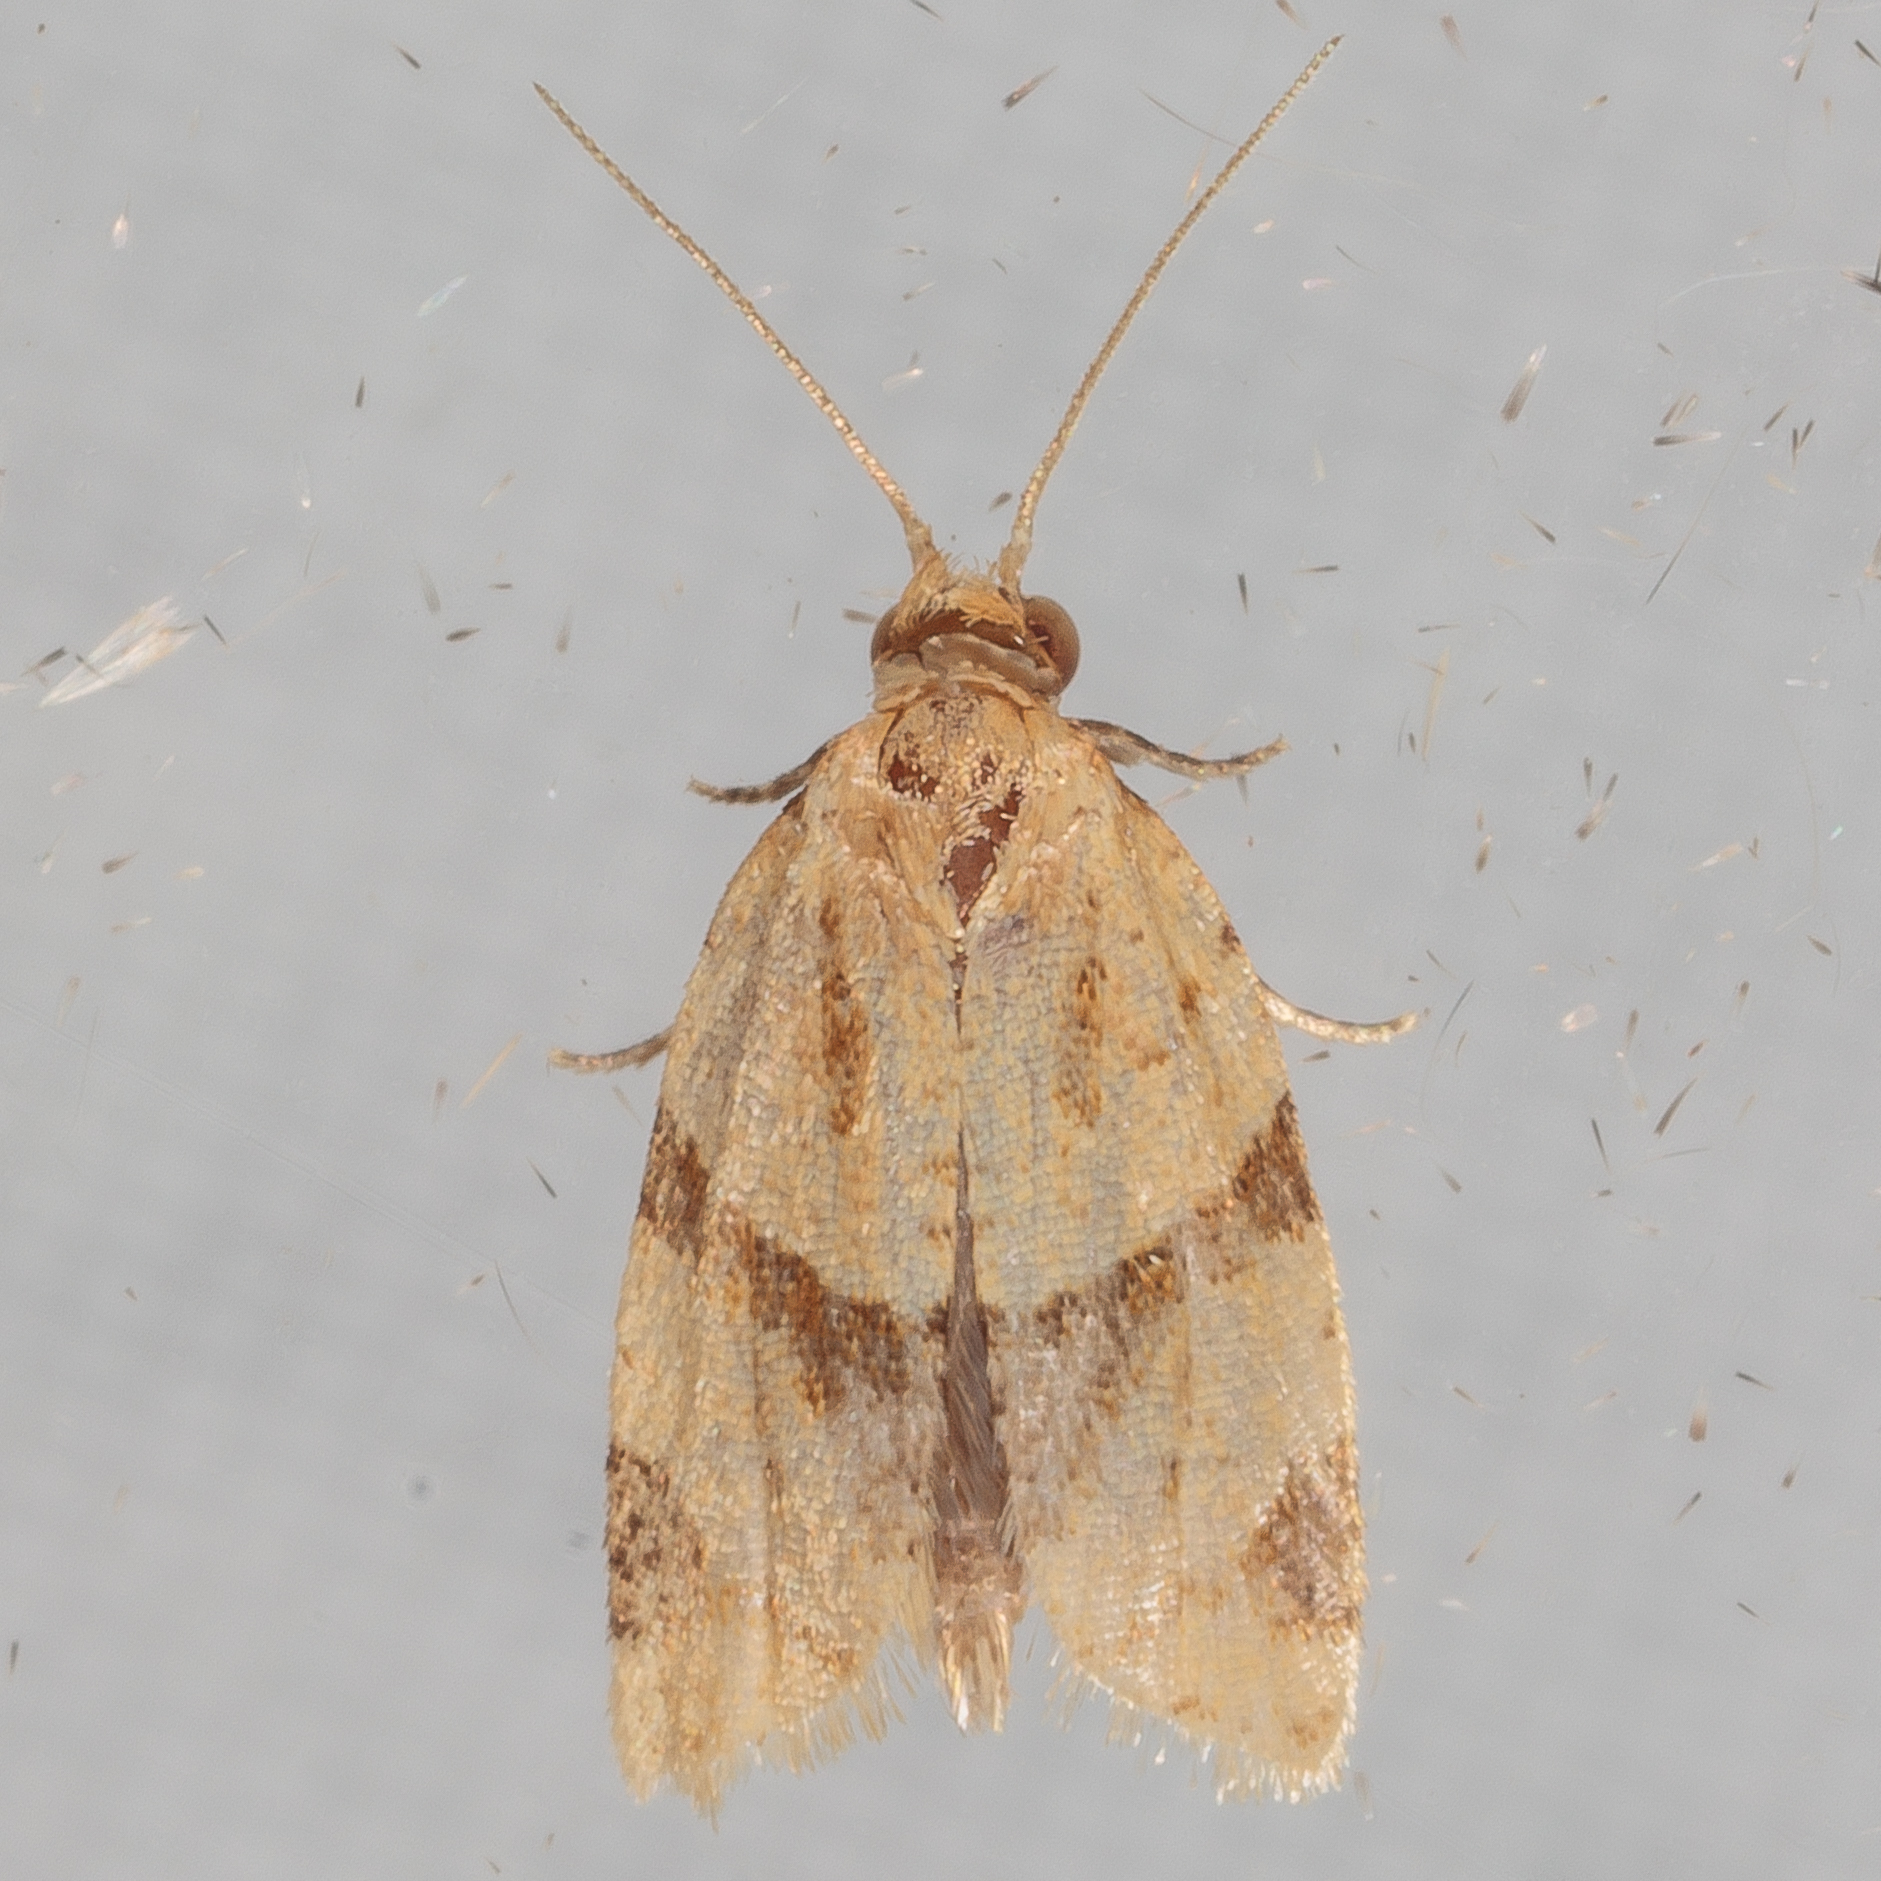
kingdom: Animalia
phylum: Arthropoda
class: Insecta
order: Lepidoptera
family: Tortricidae
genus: Clepsis
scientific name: Clepsis peritana
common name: Garden tortrix
